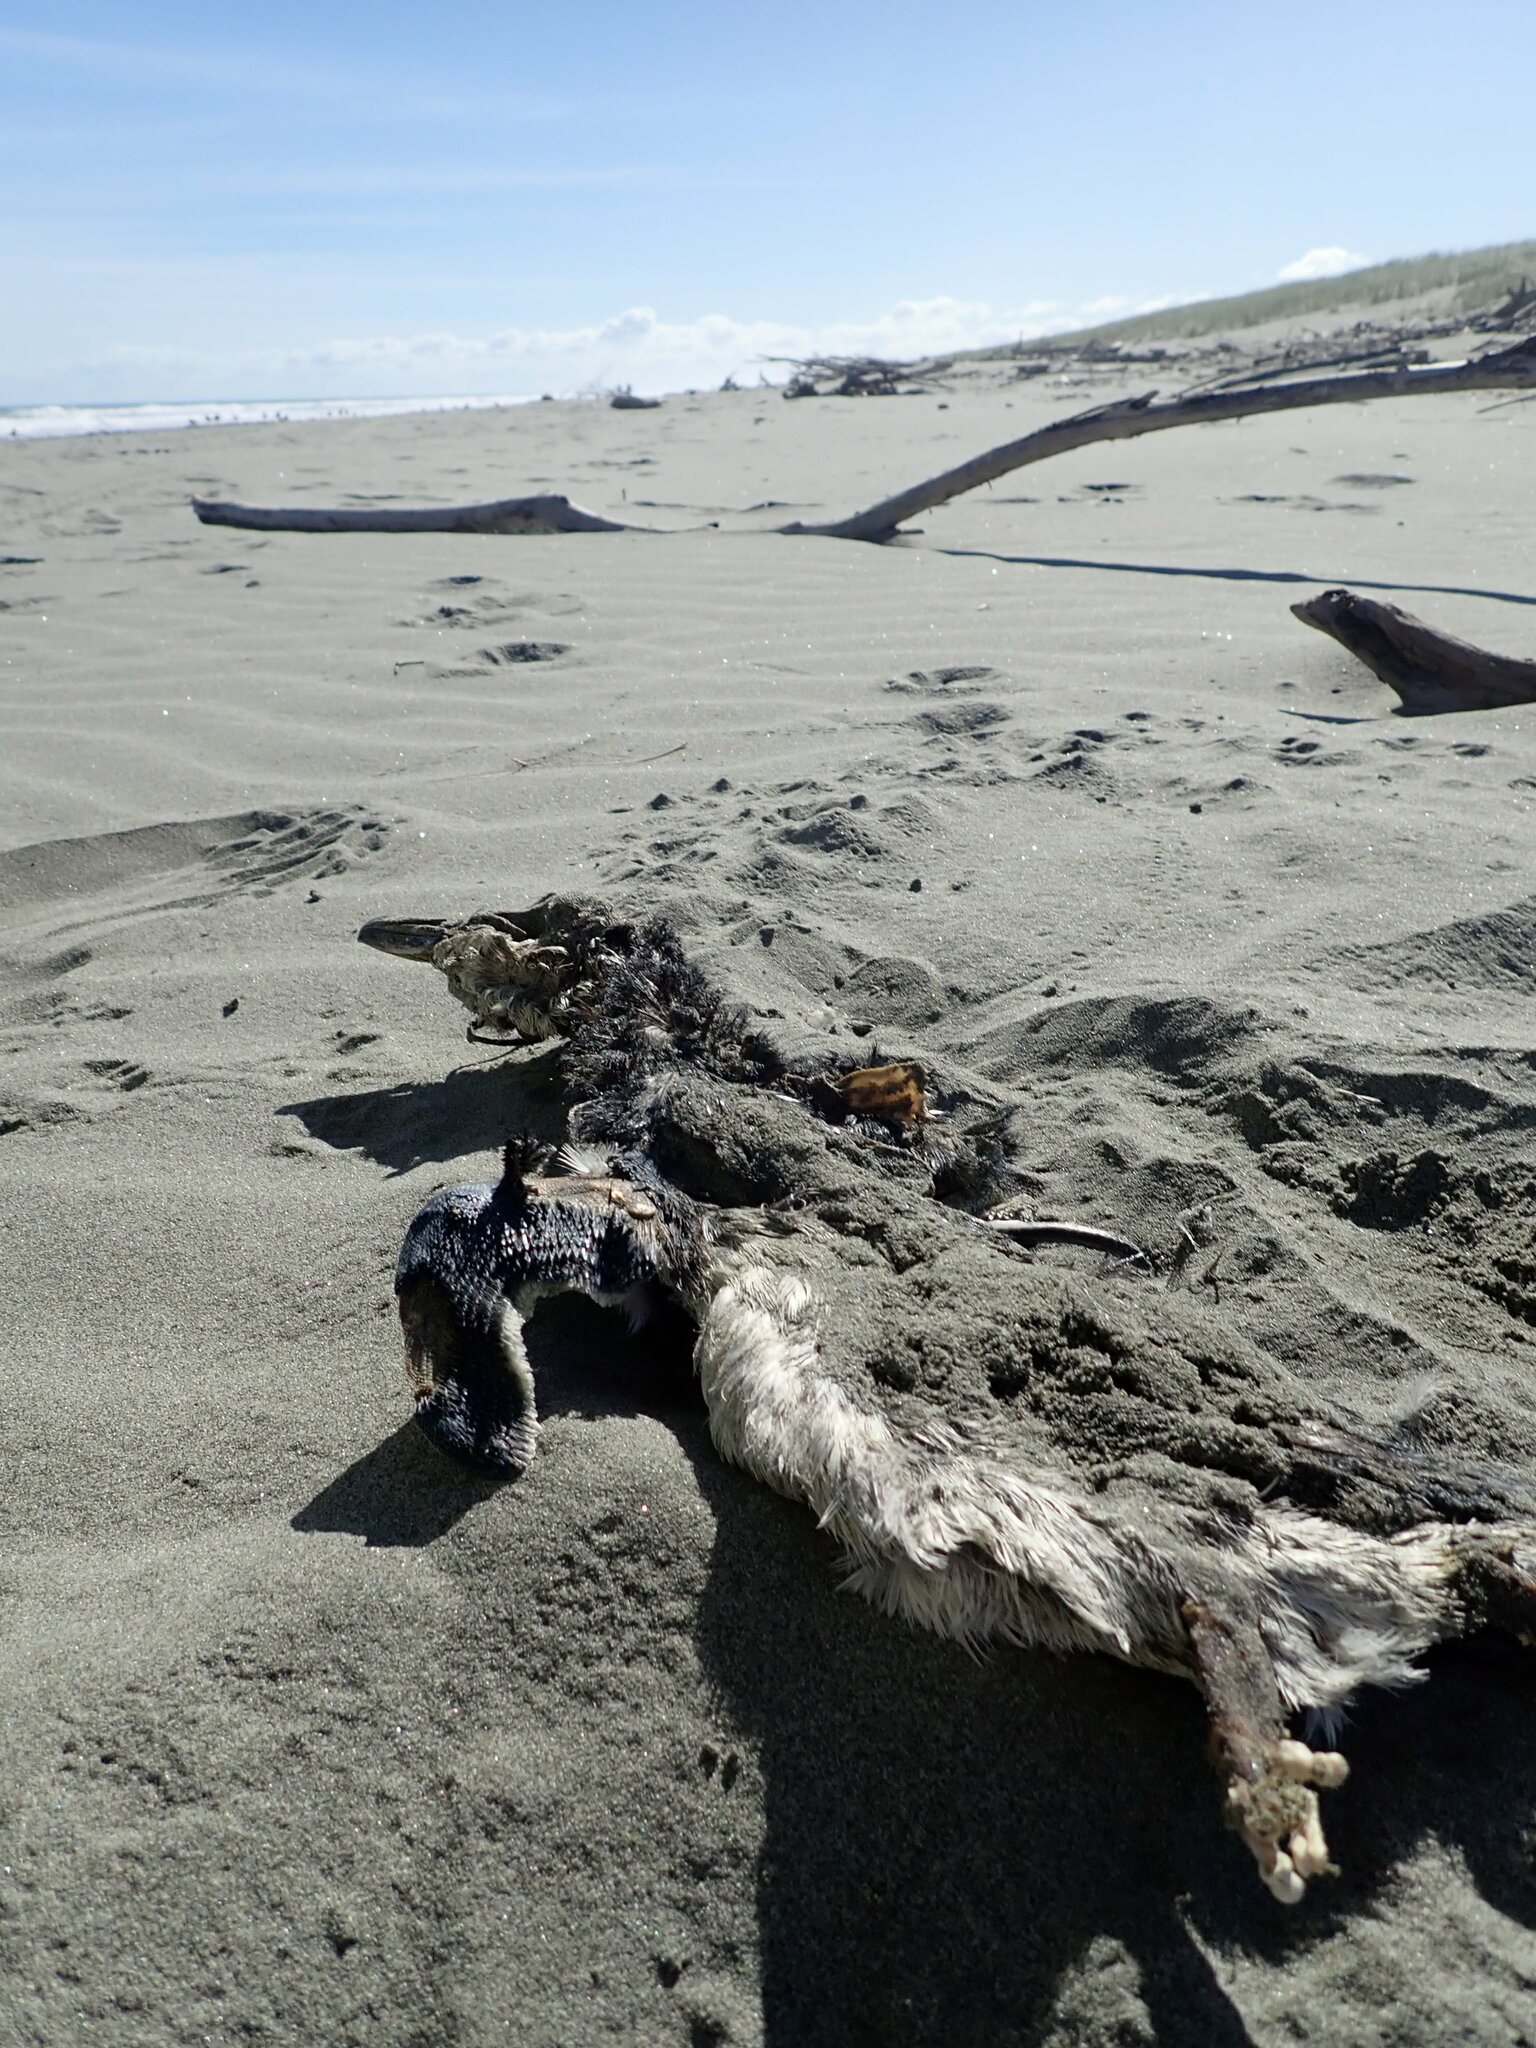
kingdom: Animalia
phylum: Chordata
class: Aves
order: Sphenisciformes
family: Spheniscidae
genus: Eudyptula
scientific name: Eudyptula minor
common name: Little penguin
